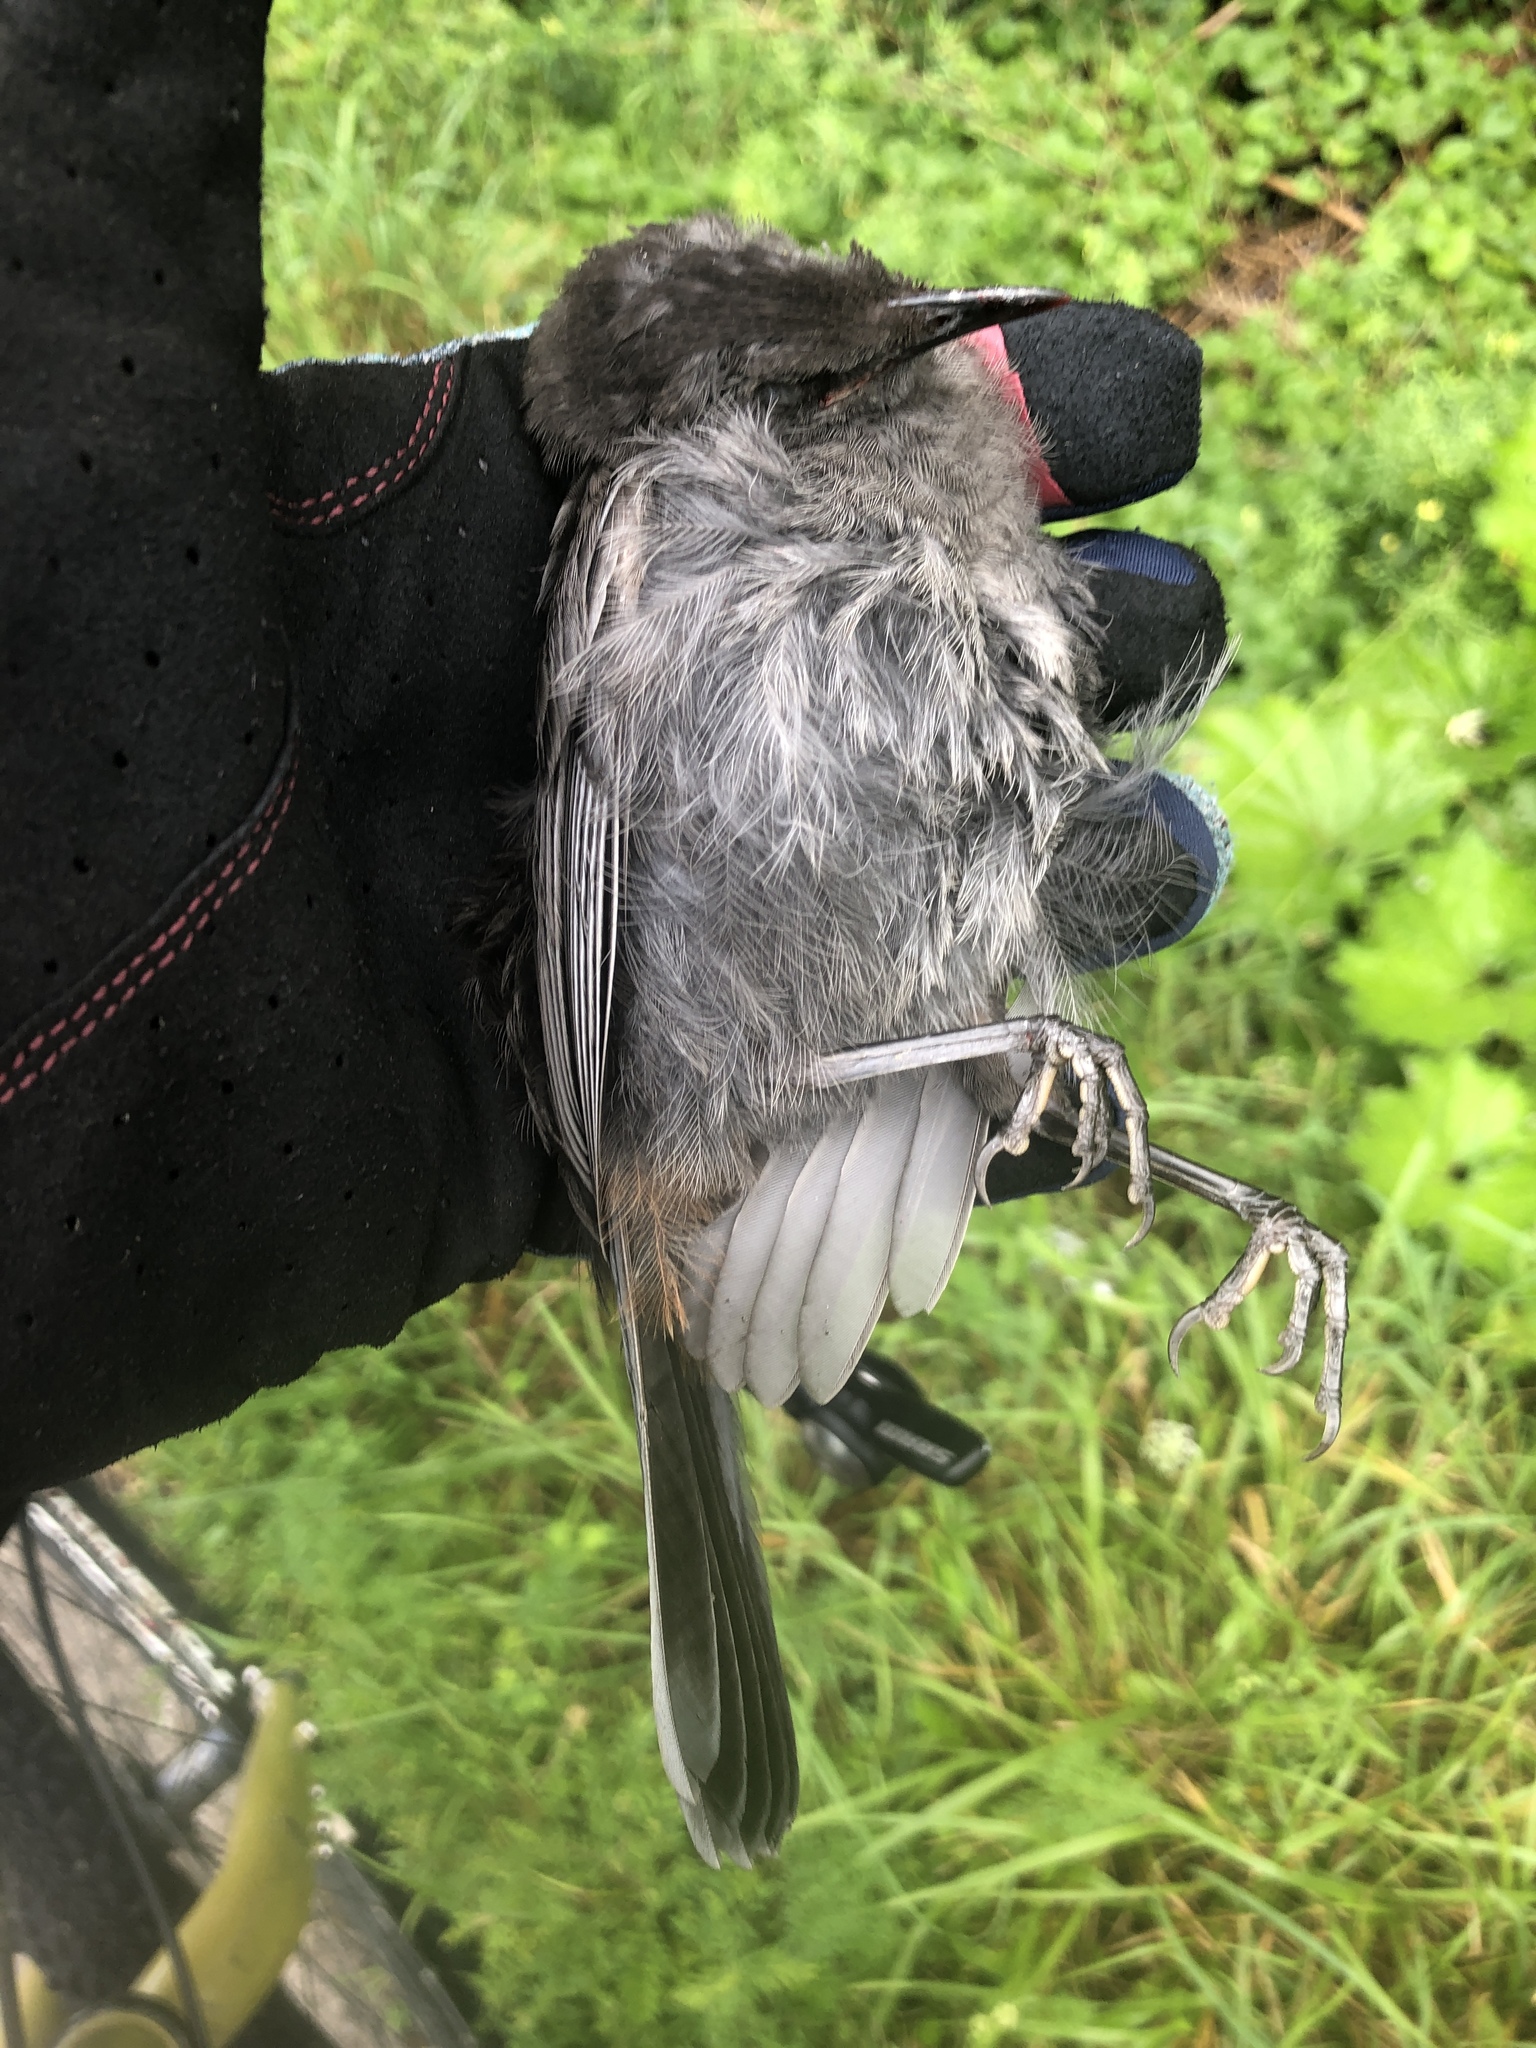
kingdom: Animalia
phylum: Chordata
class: Aves
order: Passeriformes
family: Mimidae
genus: Dumetella
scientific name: Dumetella carolinensis
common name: Gray catbird
